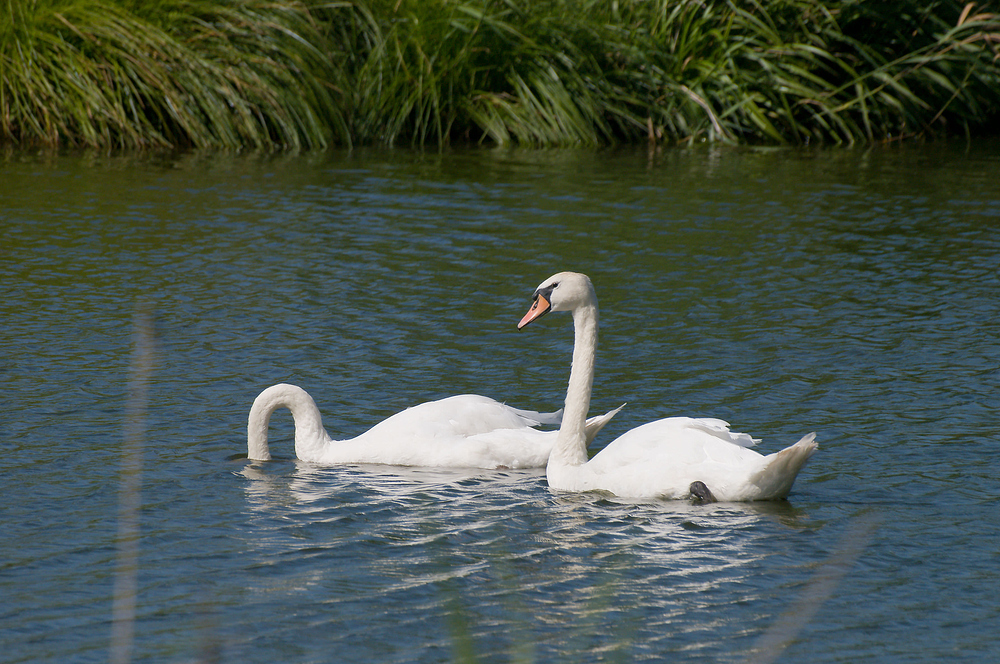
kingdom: Animalia
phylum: Chordata
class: Aves
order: Anseriformes
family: Anatidae
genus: Cygnus
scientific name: Cygnus olor
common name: Mute swan
